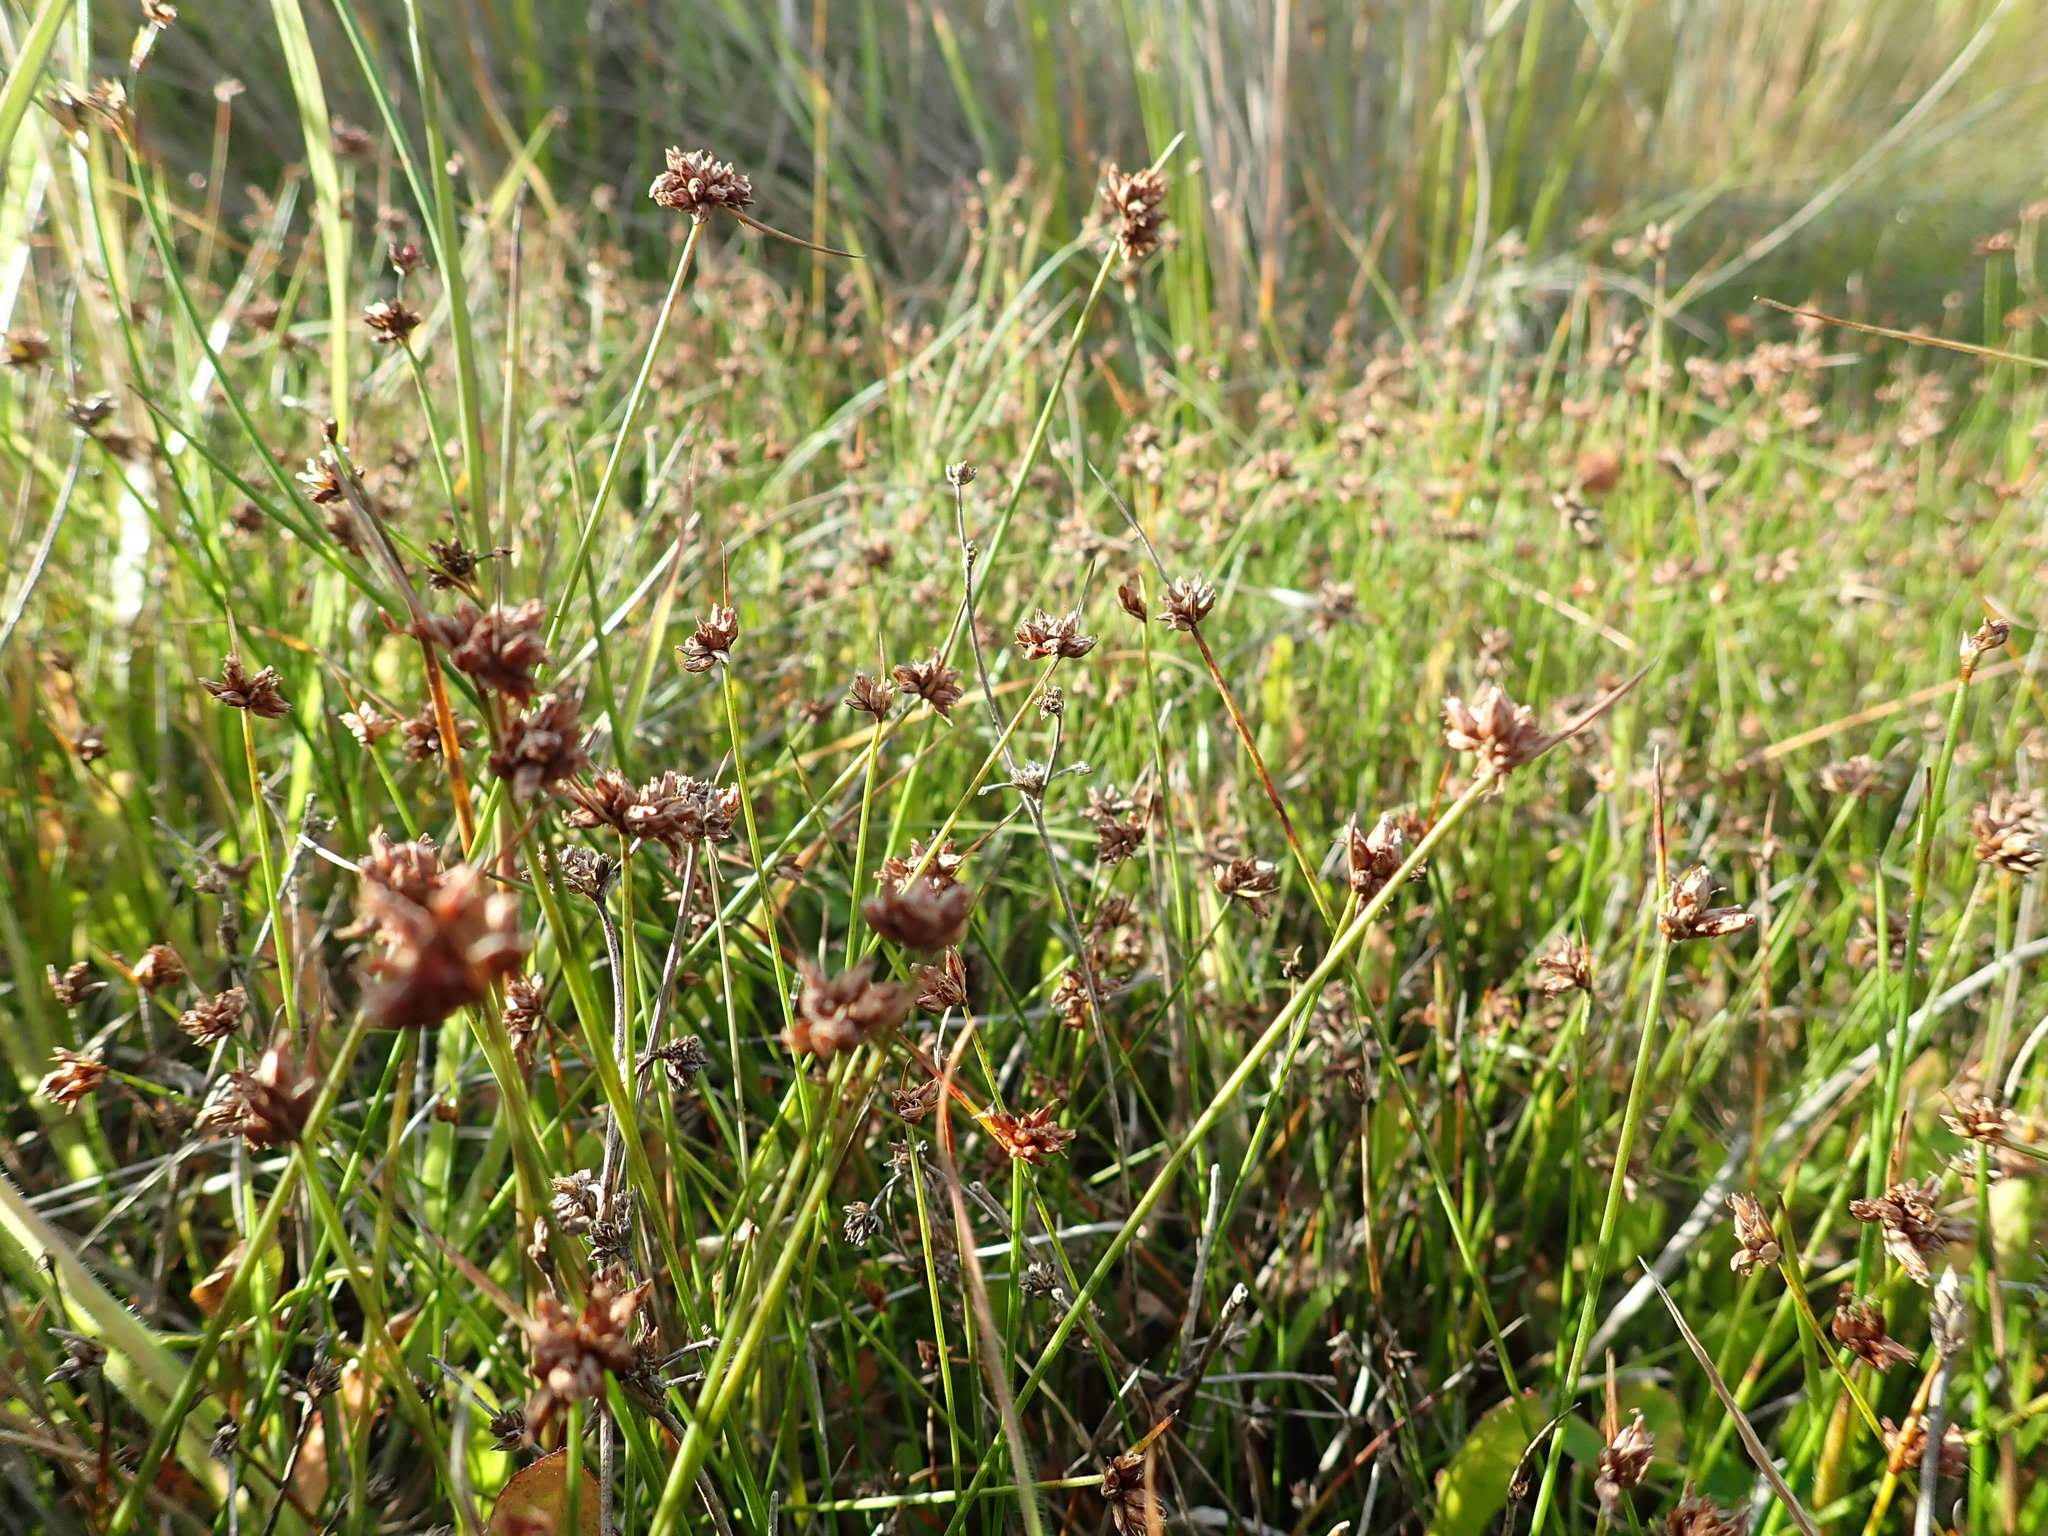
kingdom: Plantae
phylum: Tracheophyta
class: Liliopsida
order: Poales
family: Cyperaceae
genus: Schoenus
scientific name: Schoenus nitens
